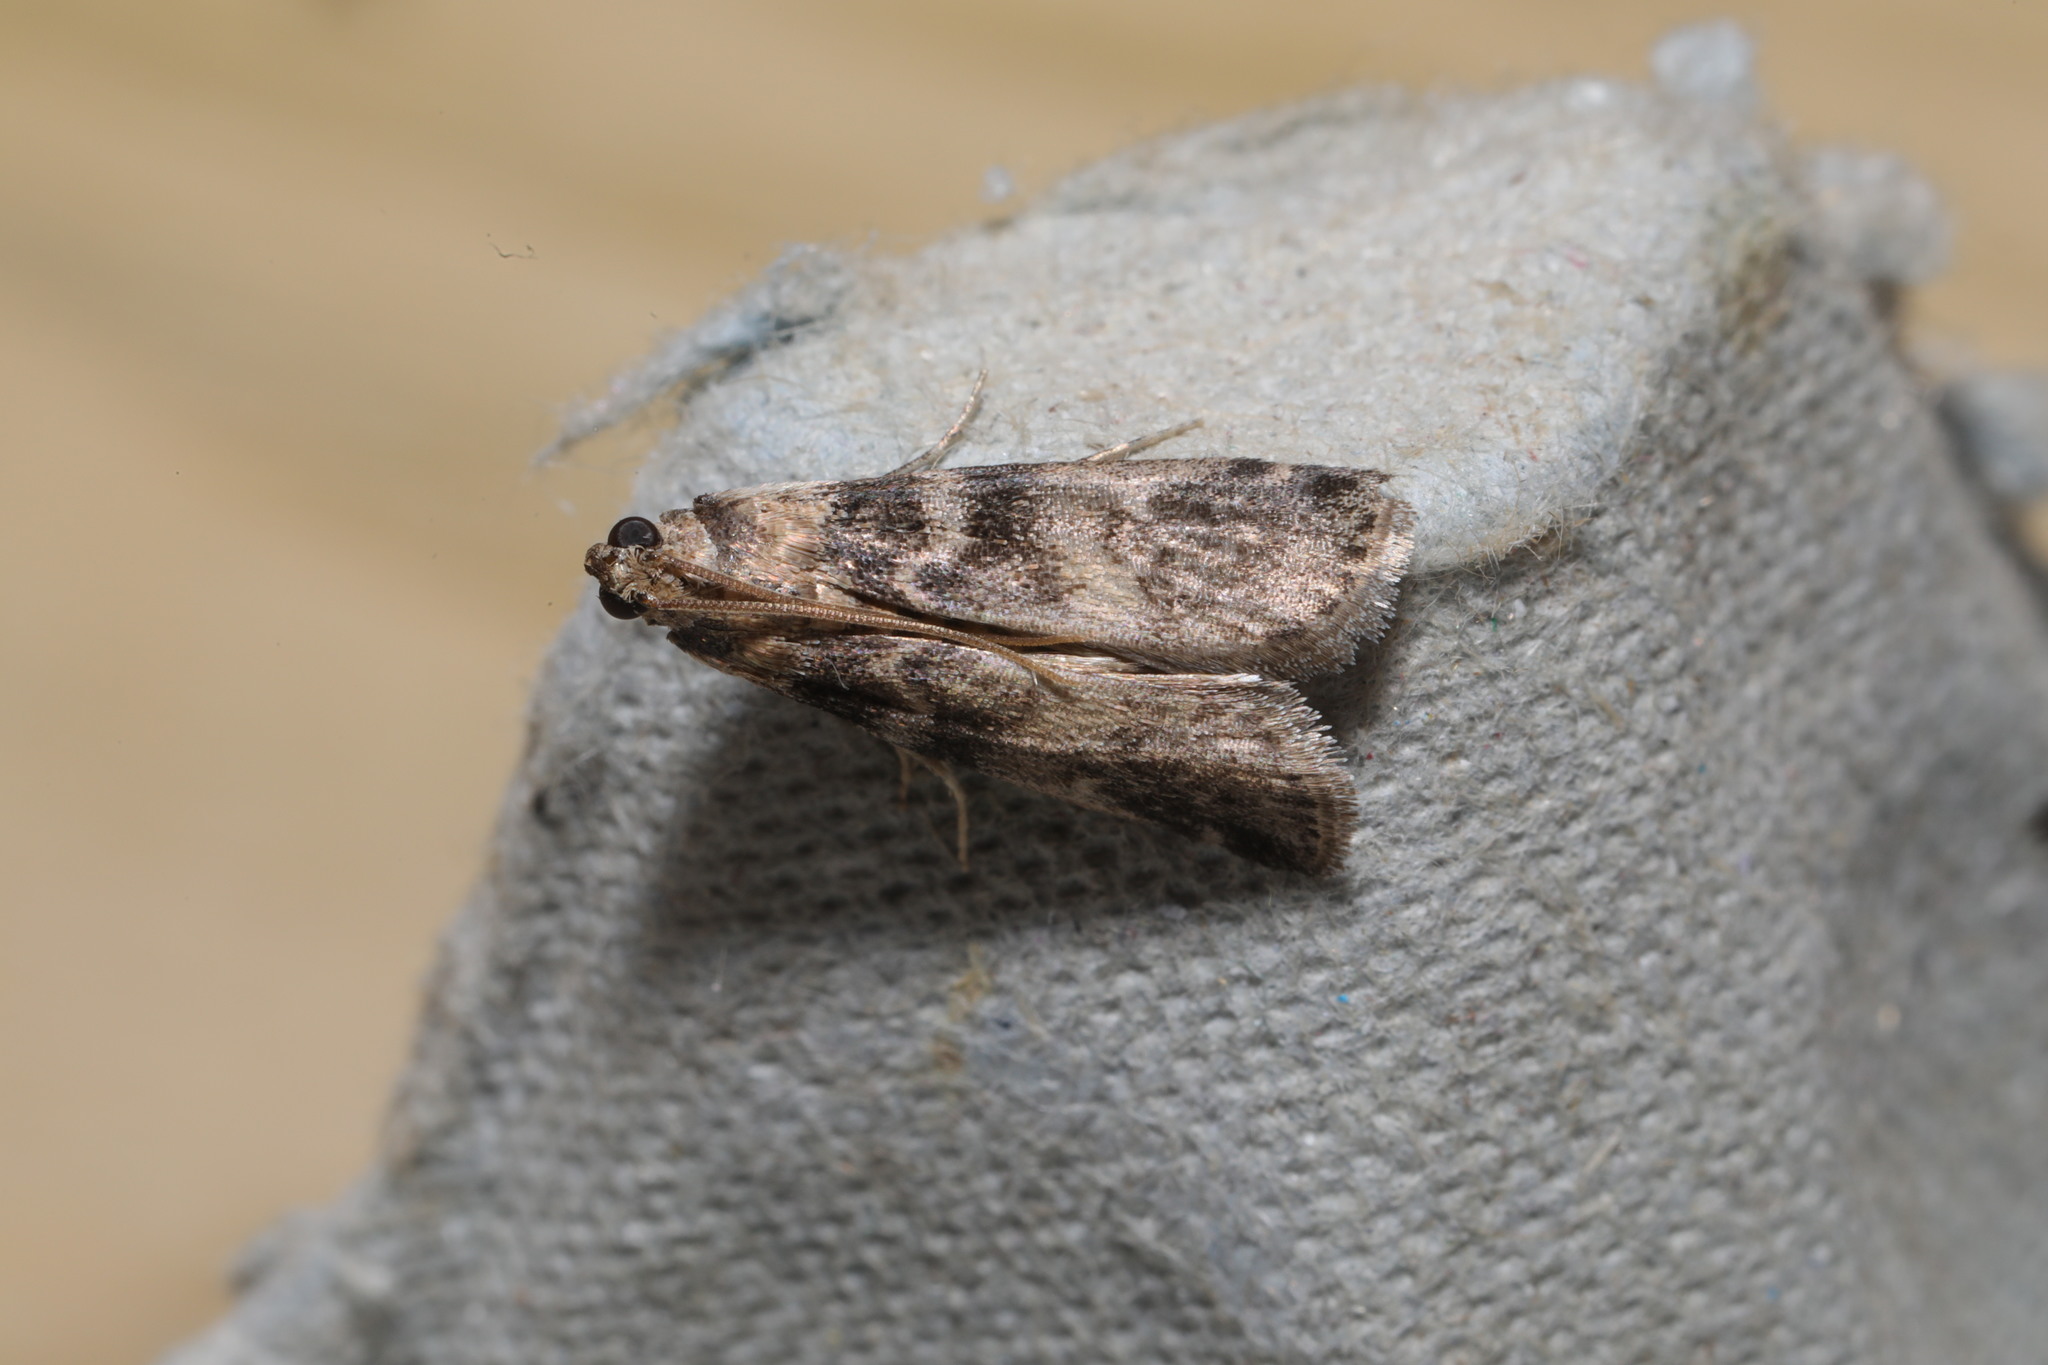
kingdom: Animalia
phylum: Arthropoda
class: Insecta
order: Lepidoptera
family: Pyralidae
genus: Euzophera
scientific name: Euzophera pinguis
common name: Ash-bark knot-horn
